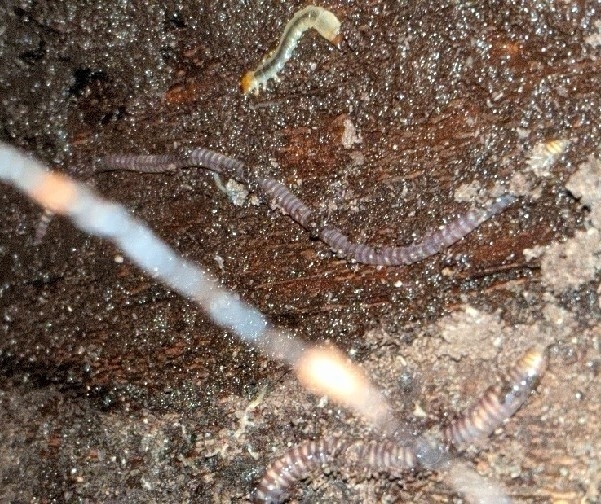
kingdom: Animalia
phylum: Annelida
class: Clitellata
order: Crassiclitellata
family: Lumbricidae
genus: Eisenia
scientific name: Eisenia fetida
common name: Red wiggler
